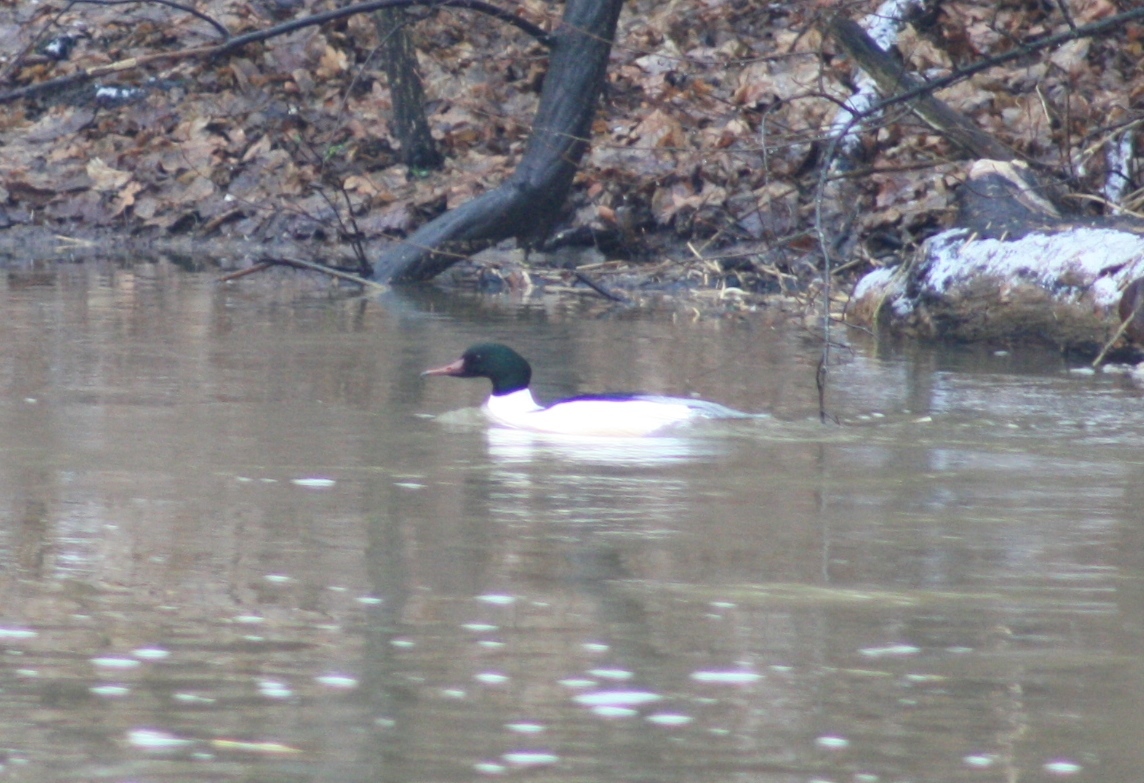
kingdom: Animalia
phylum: Chordata
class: Aves
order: Anseriformes
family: Anatidae
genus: Mergus
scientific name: Mergus merganser
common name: Common merganser
